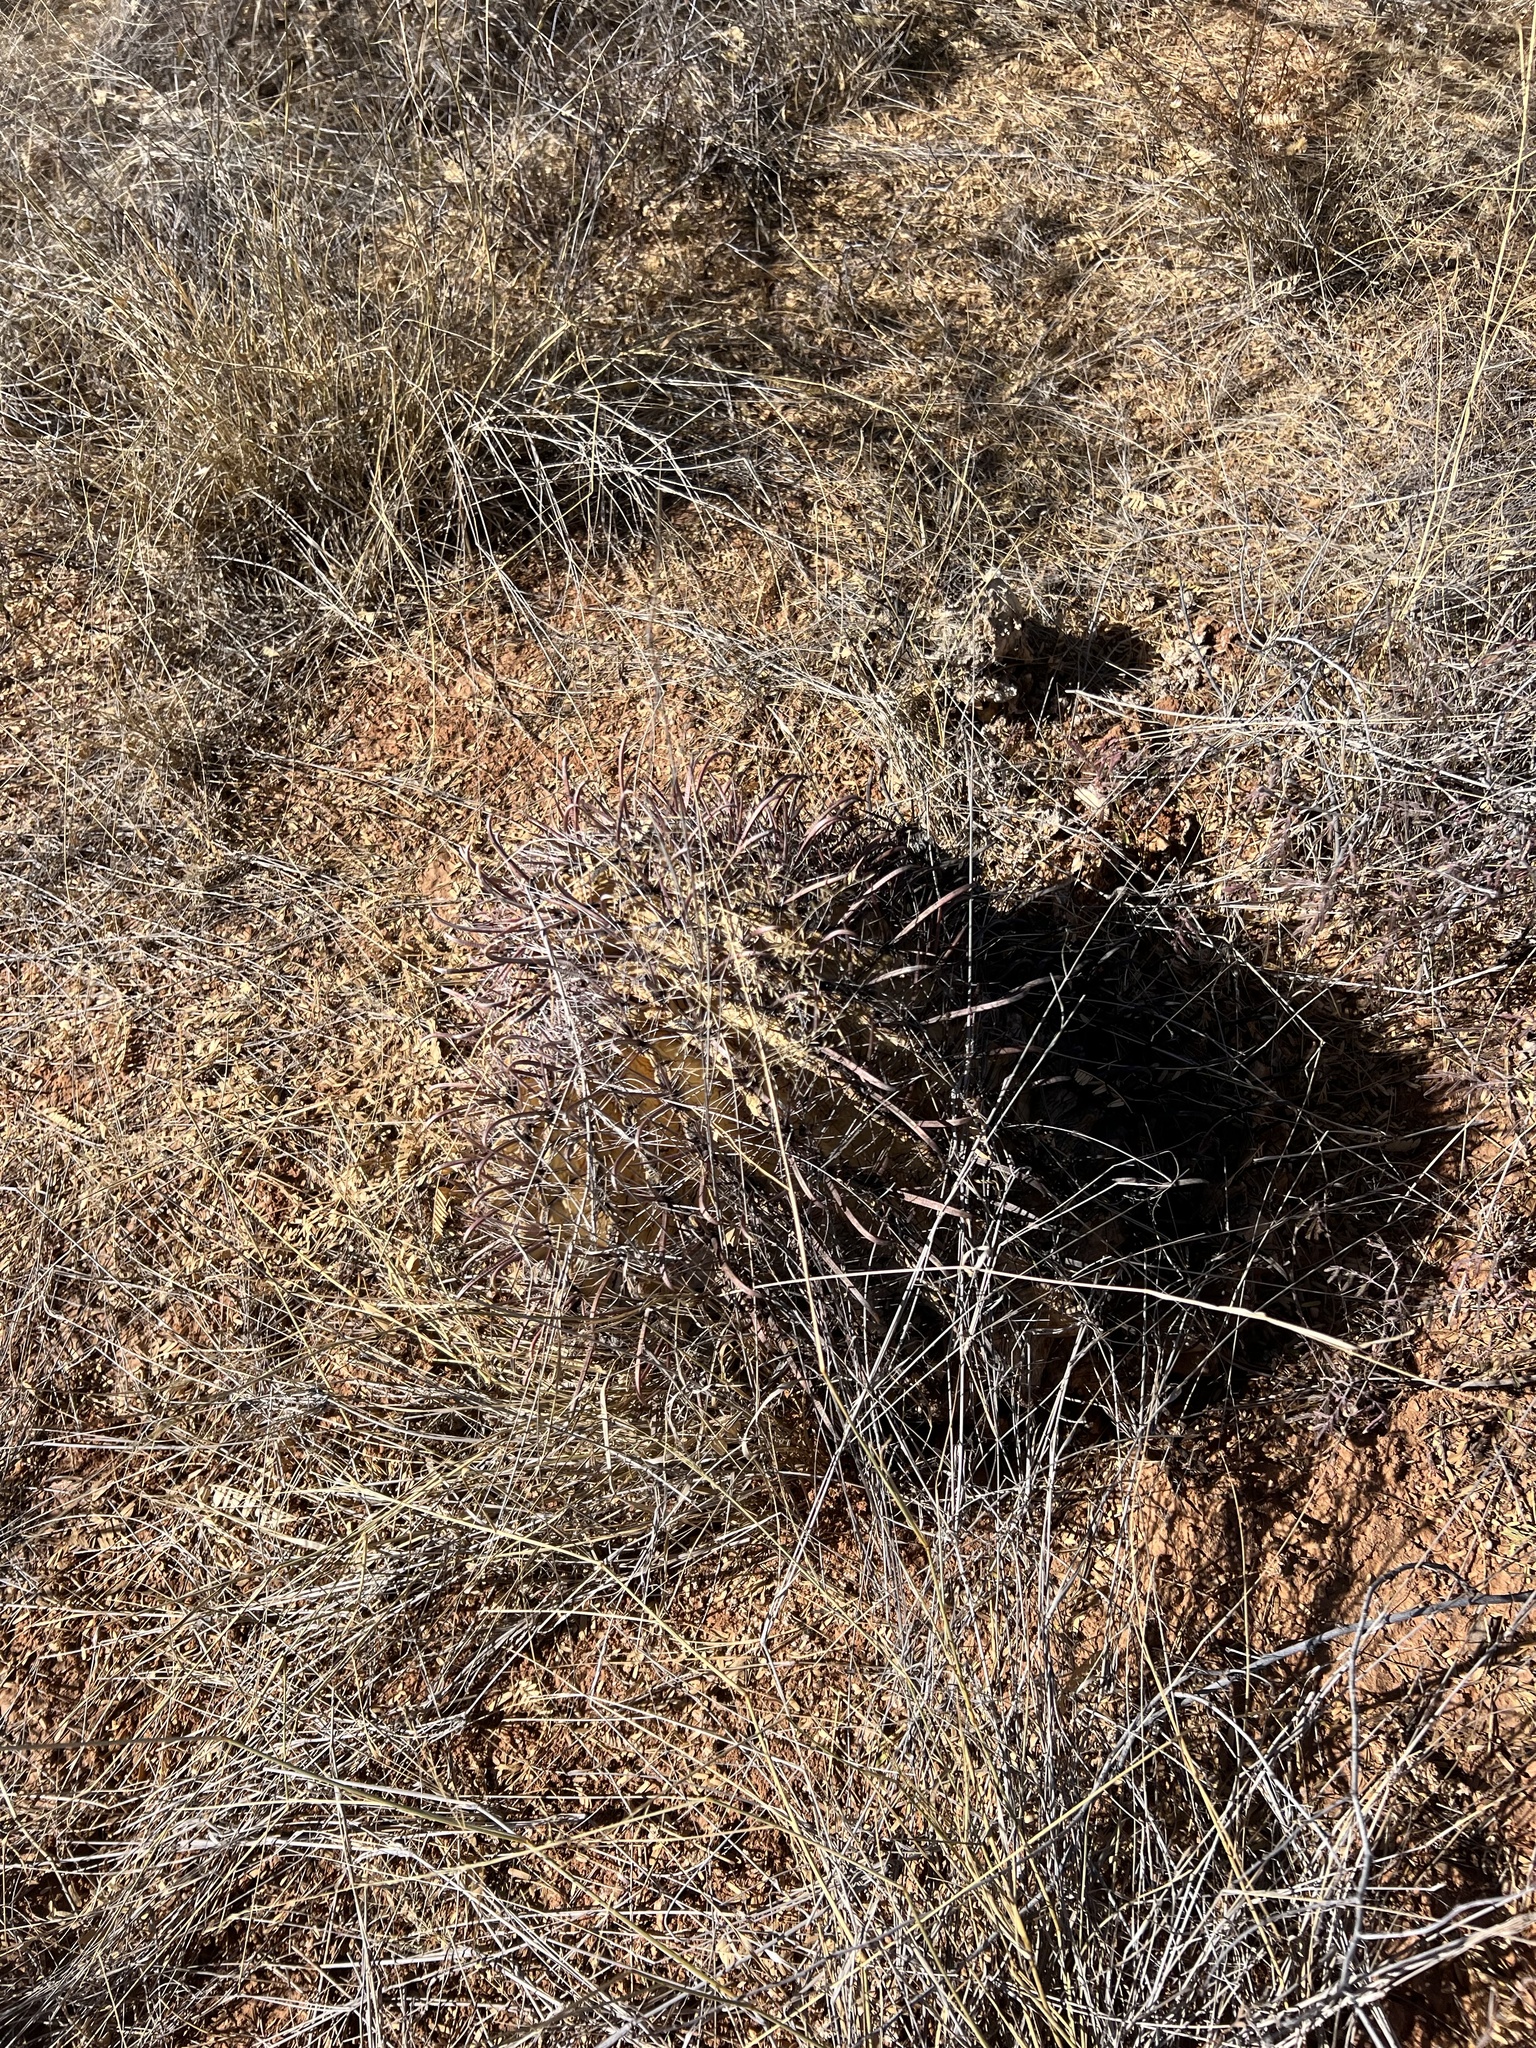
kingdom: Plantae
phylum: Tracheophyta
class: Magnoliopsida
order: Caryophyllales
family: Cactaceae
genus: Ferocactus
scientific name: Ferocactus wislizeni
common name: Candy barrel cactus
